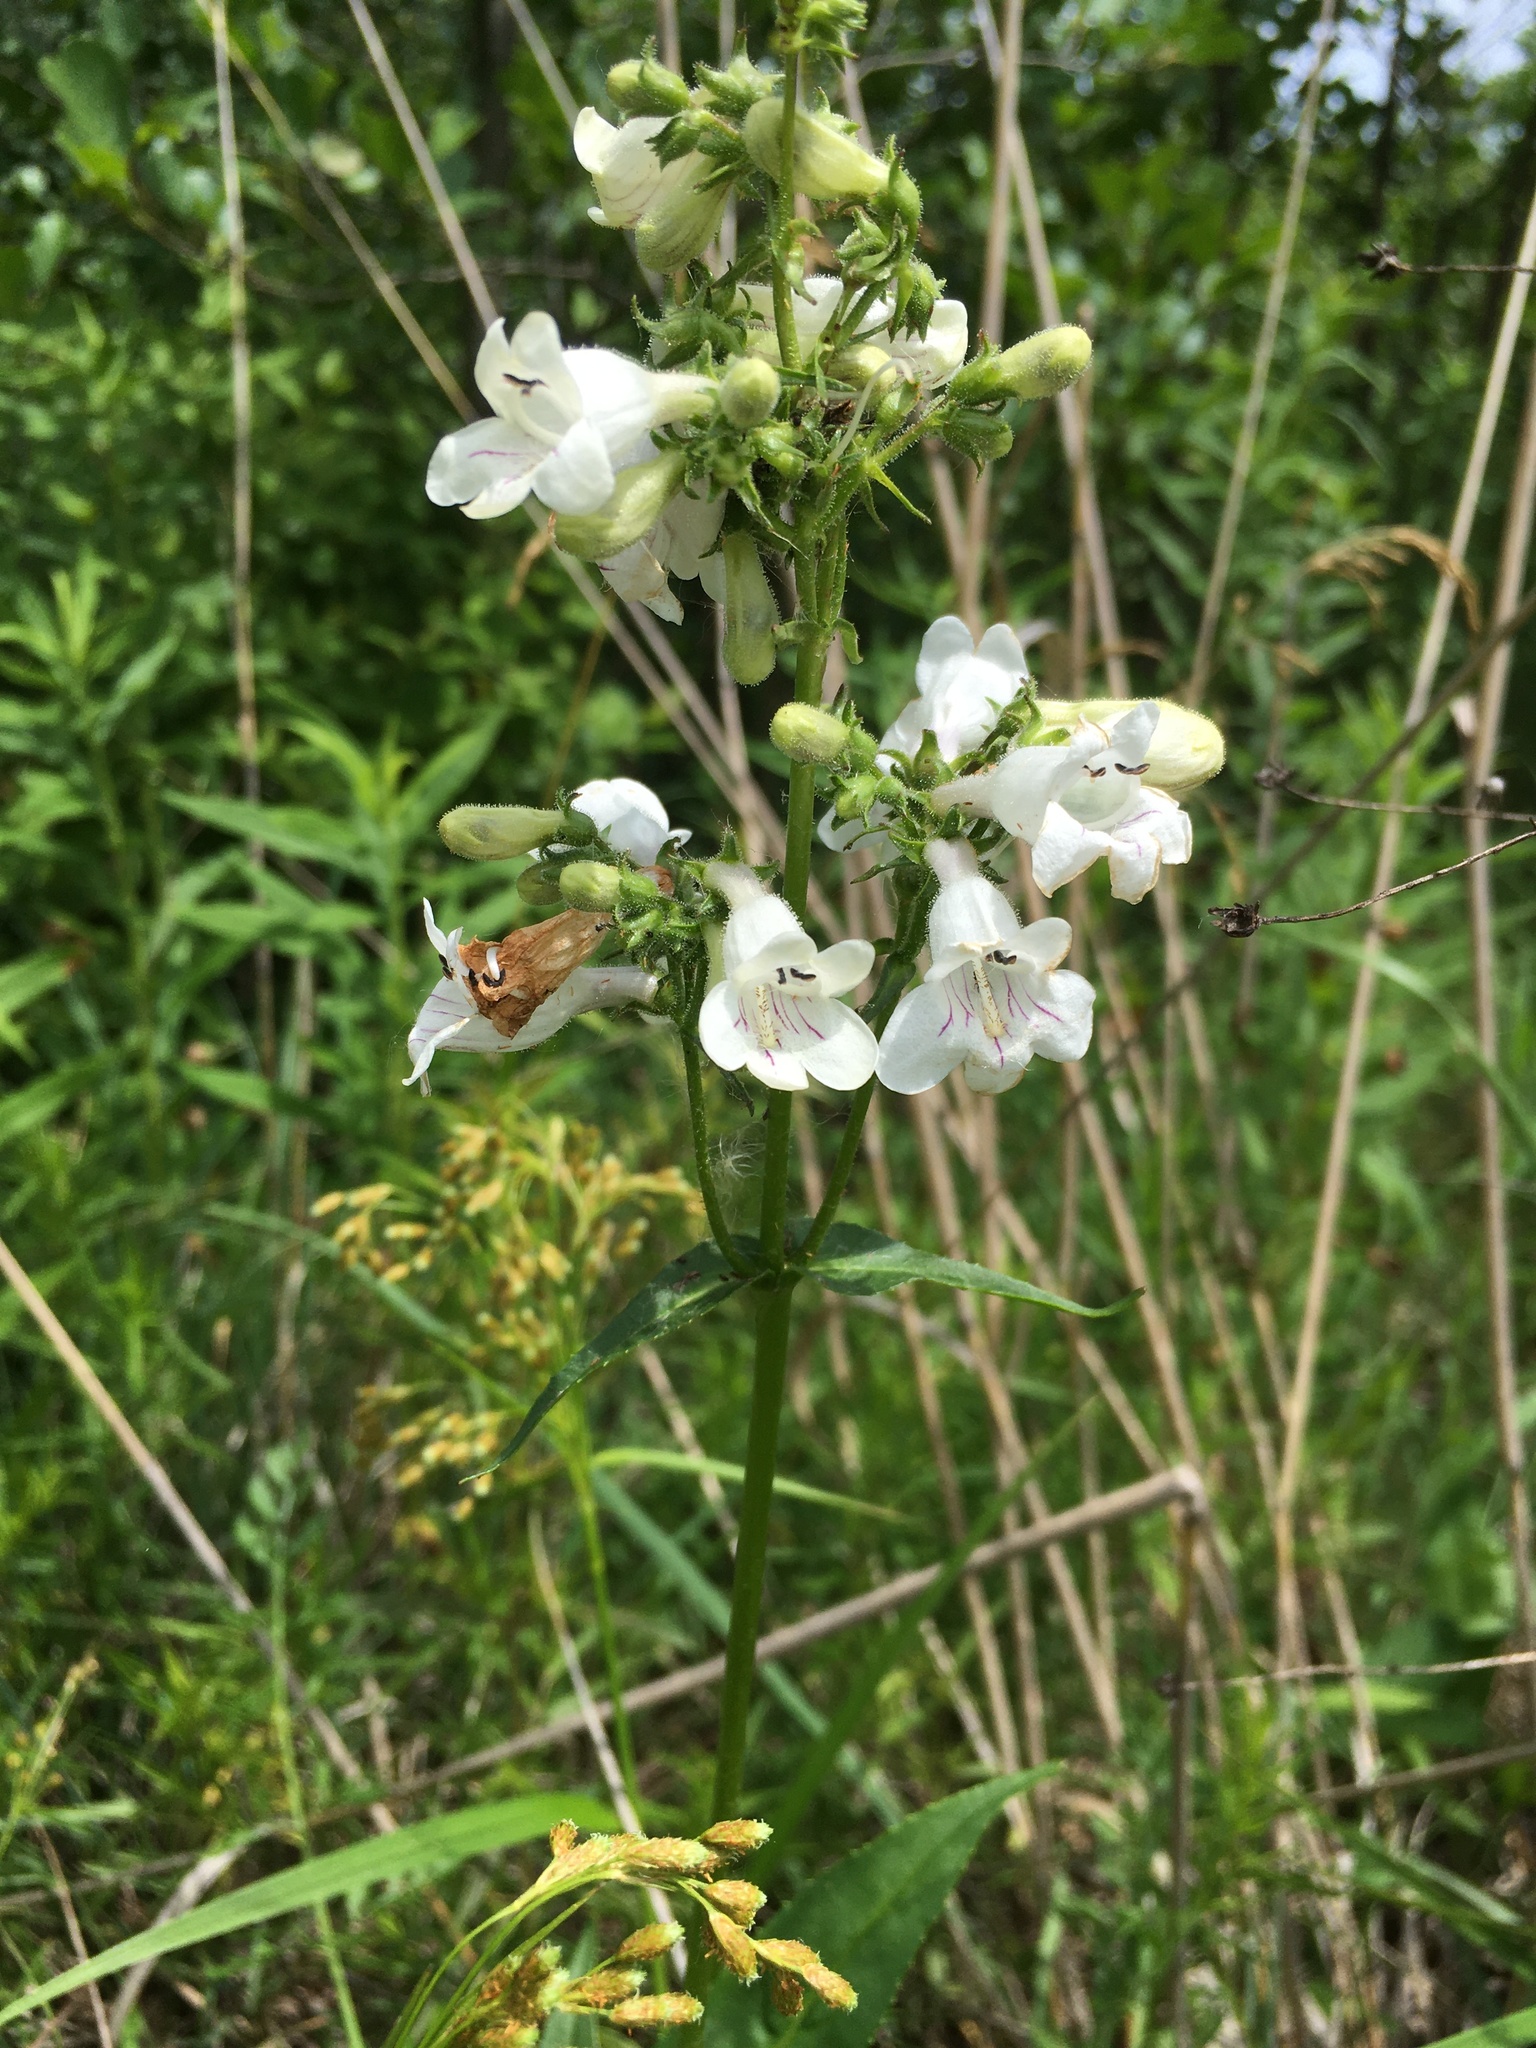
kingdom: Plantae
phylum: Tracheophyta
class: Magnoliopsida
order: Lamiales
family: Plantaginaceae
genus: Penstemon
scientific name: Penstemon digitalis
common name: Foxglove beardtongue
